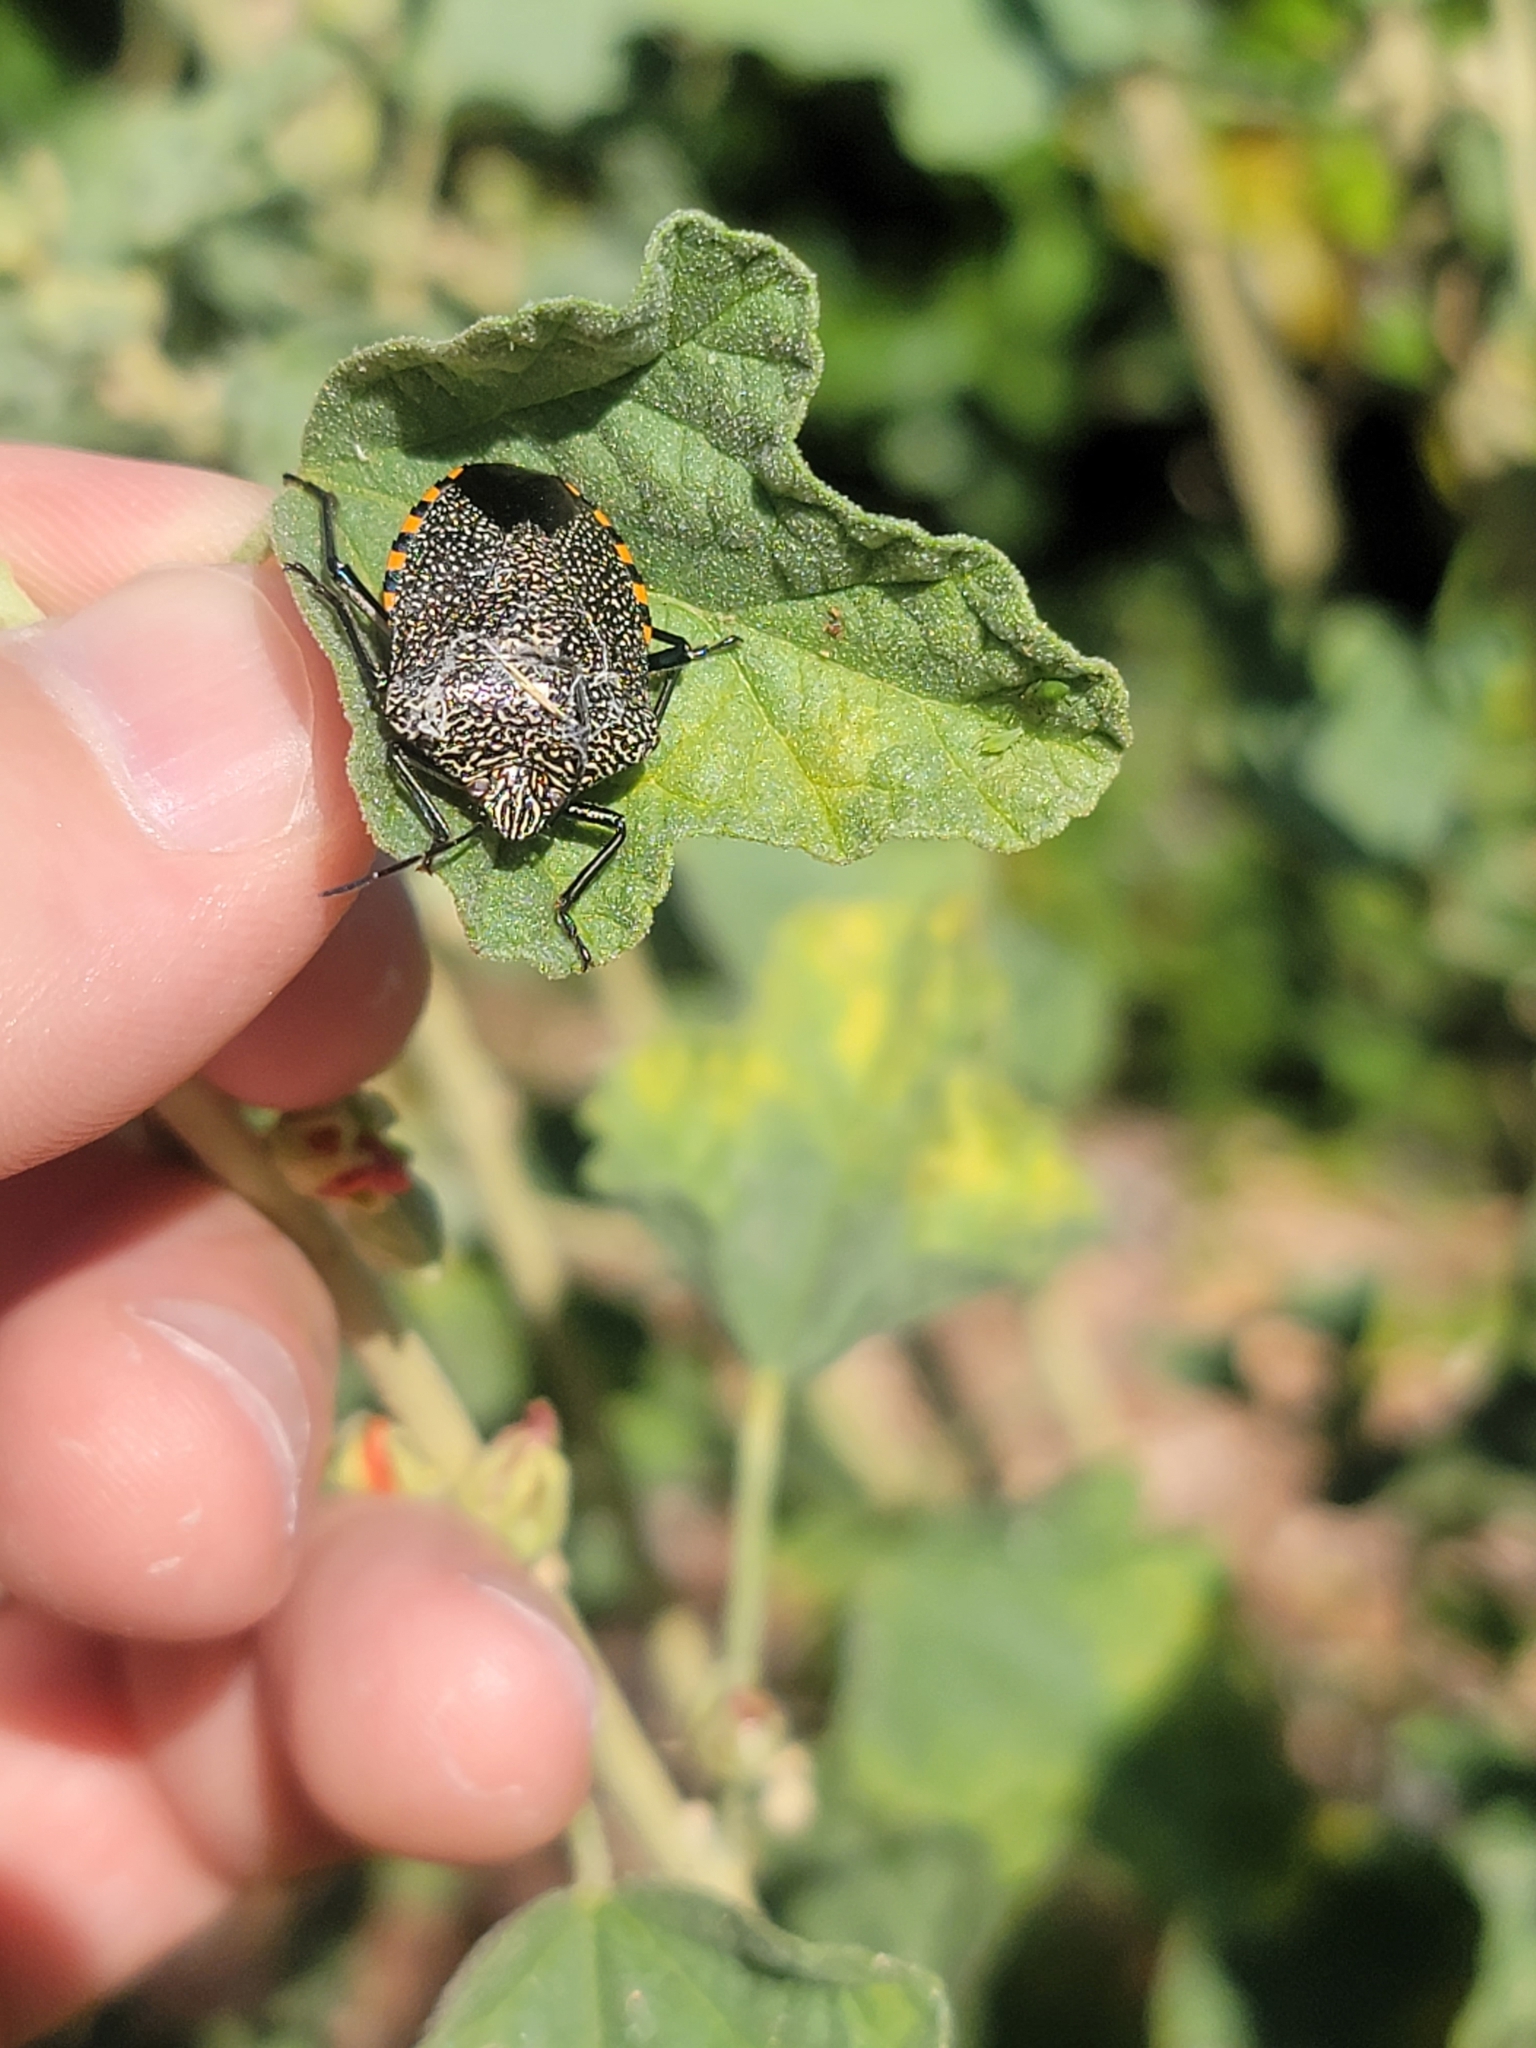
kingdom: Animalia
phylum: Arthropoda
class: Insecta
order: Hemiptera
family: Pentatomidae
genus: Pellaea
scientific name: Pellaea stictica
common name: Stink bug
